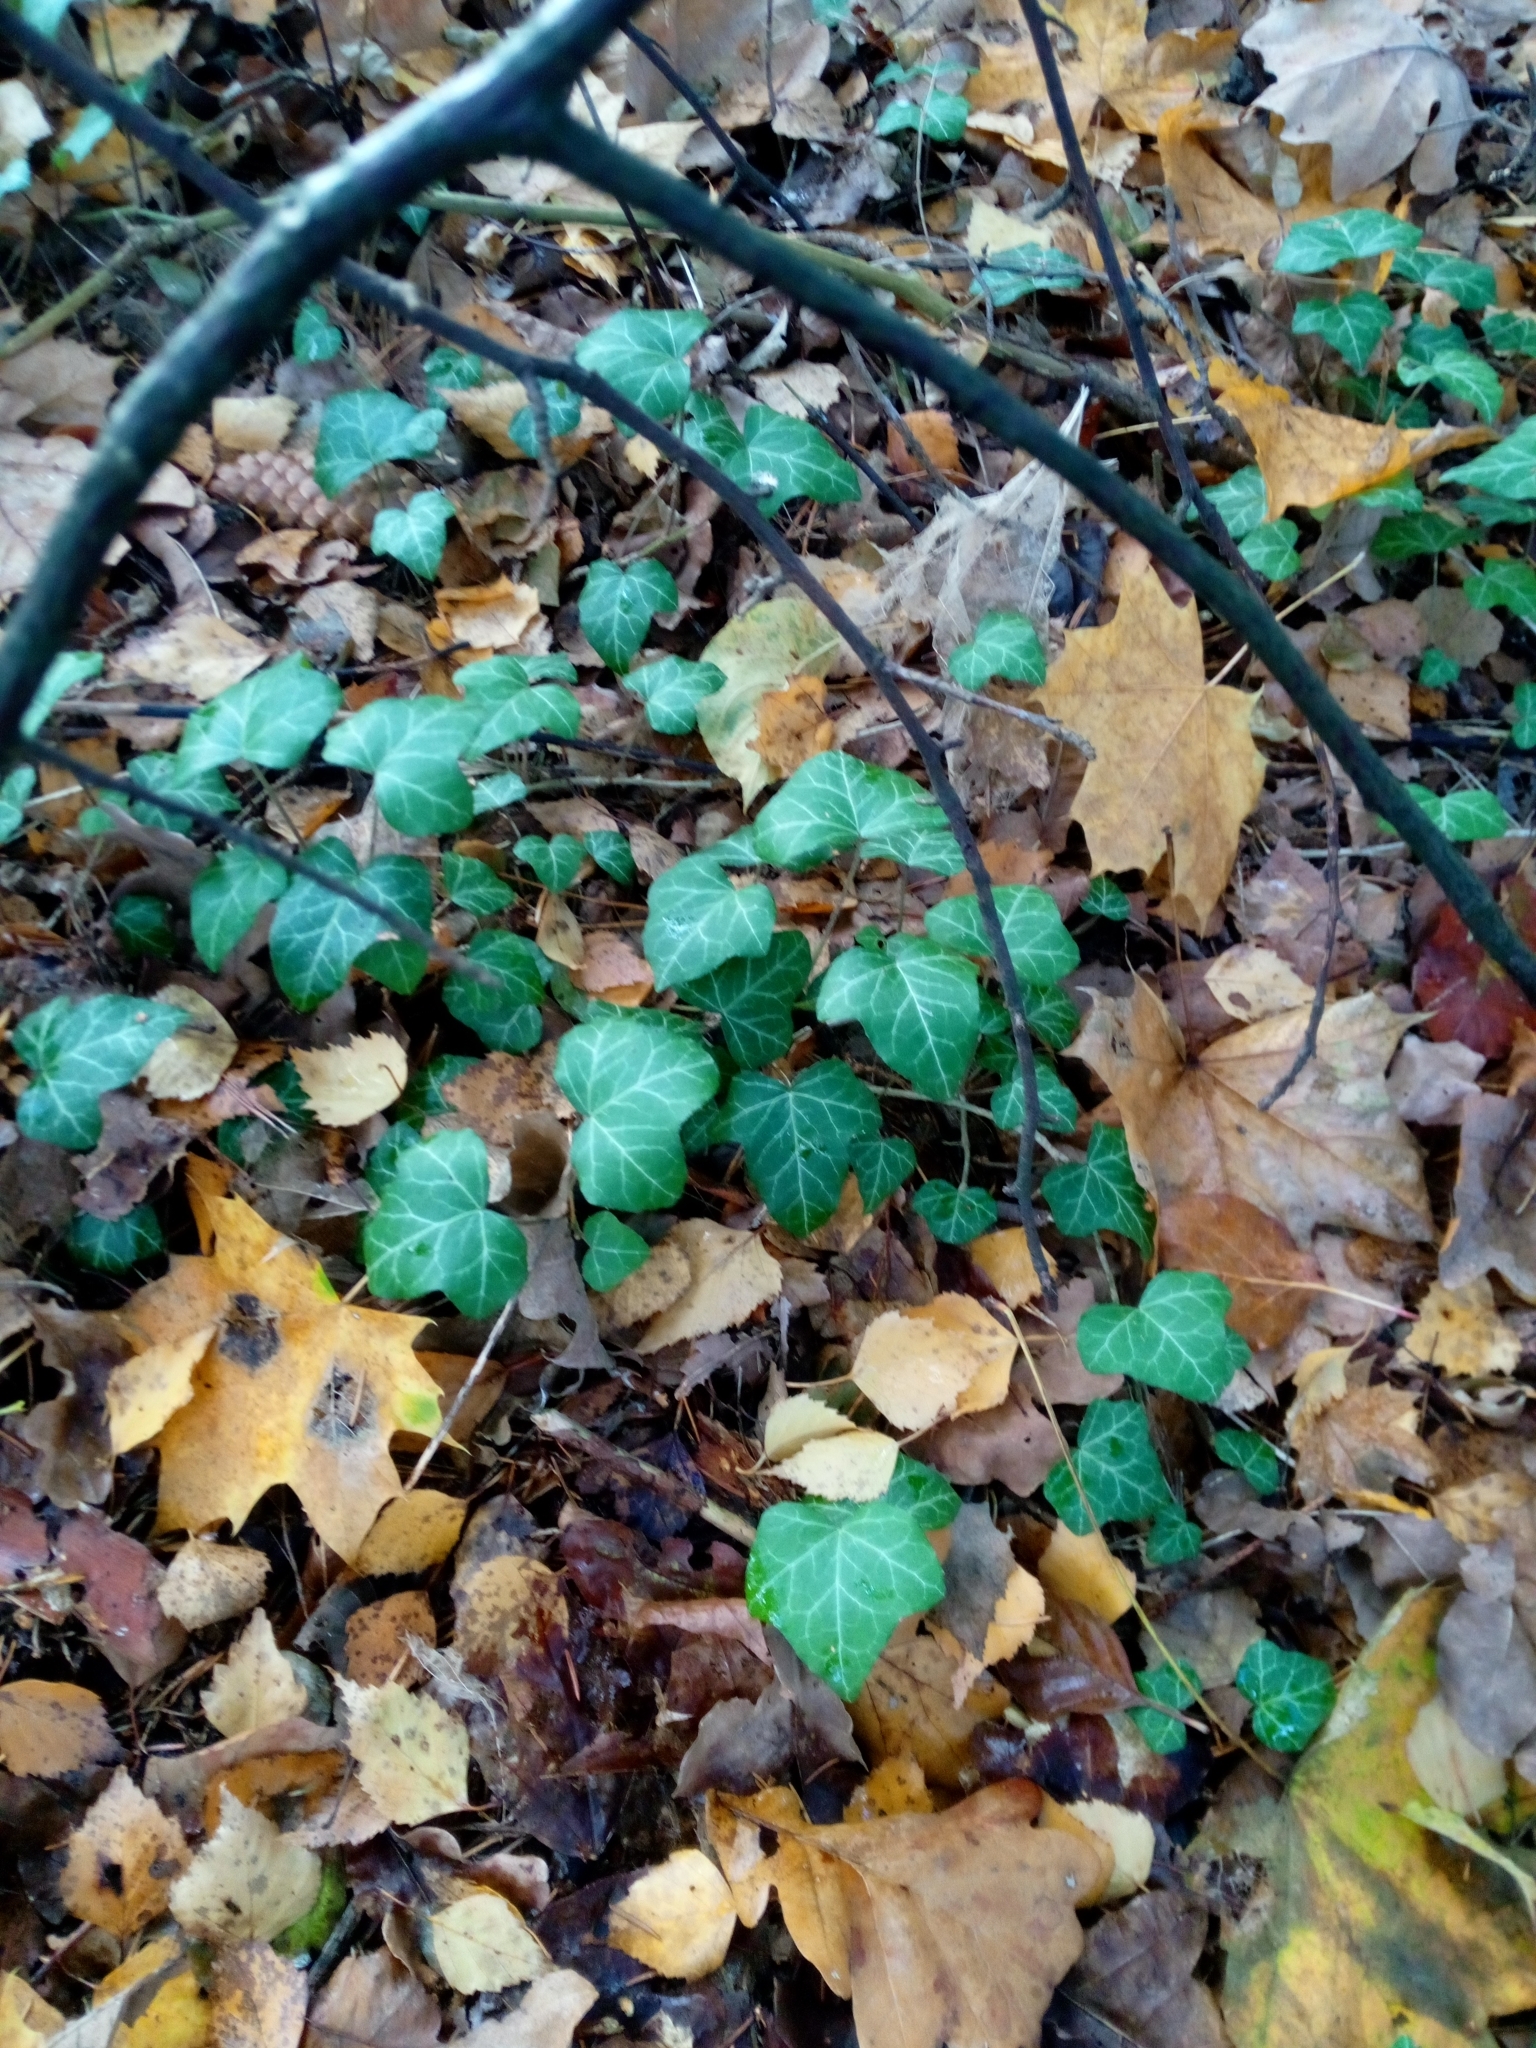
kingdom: Plantae
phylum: Tracheophyta
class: Magnoliopsida
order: Apiales
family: Araliaceae
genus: Hedera
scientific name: Hedera helix
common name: Ivy
